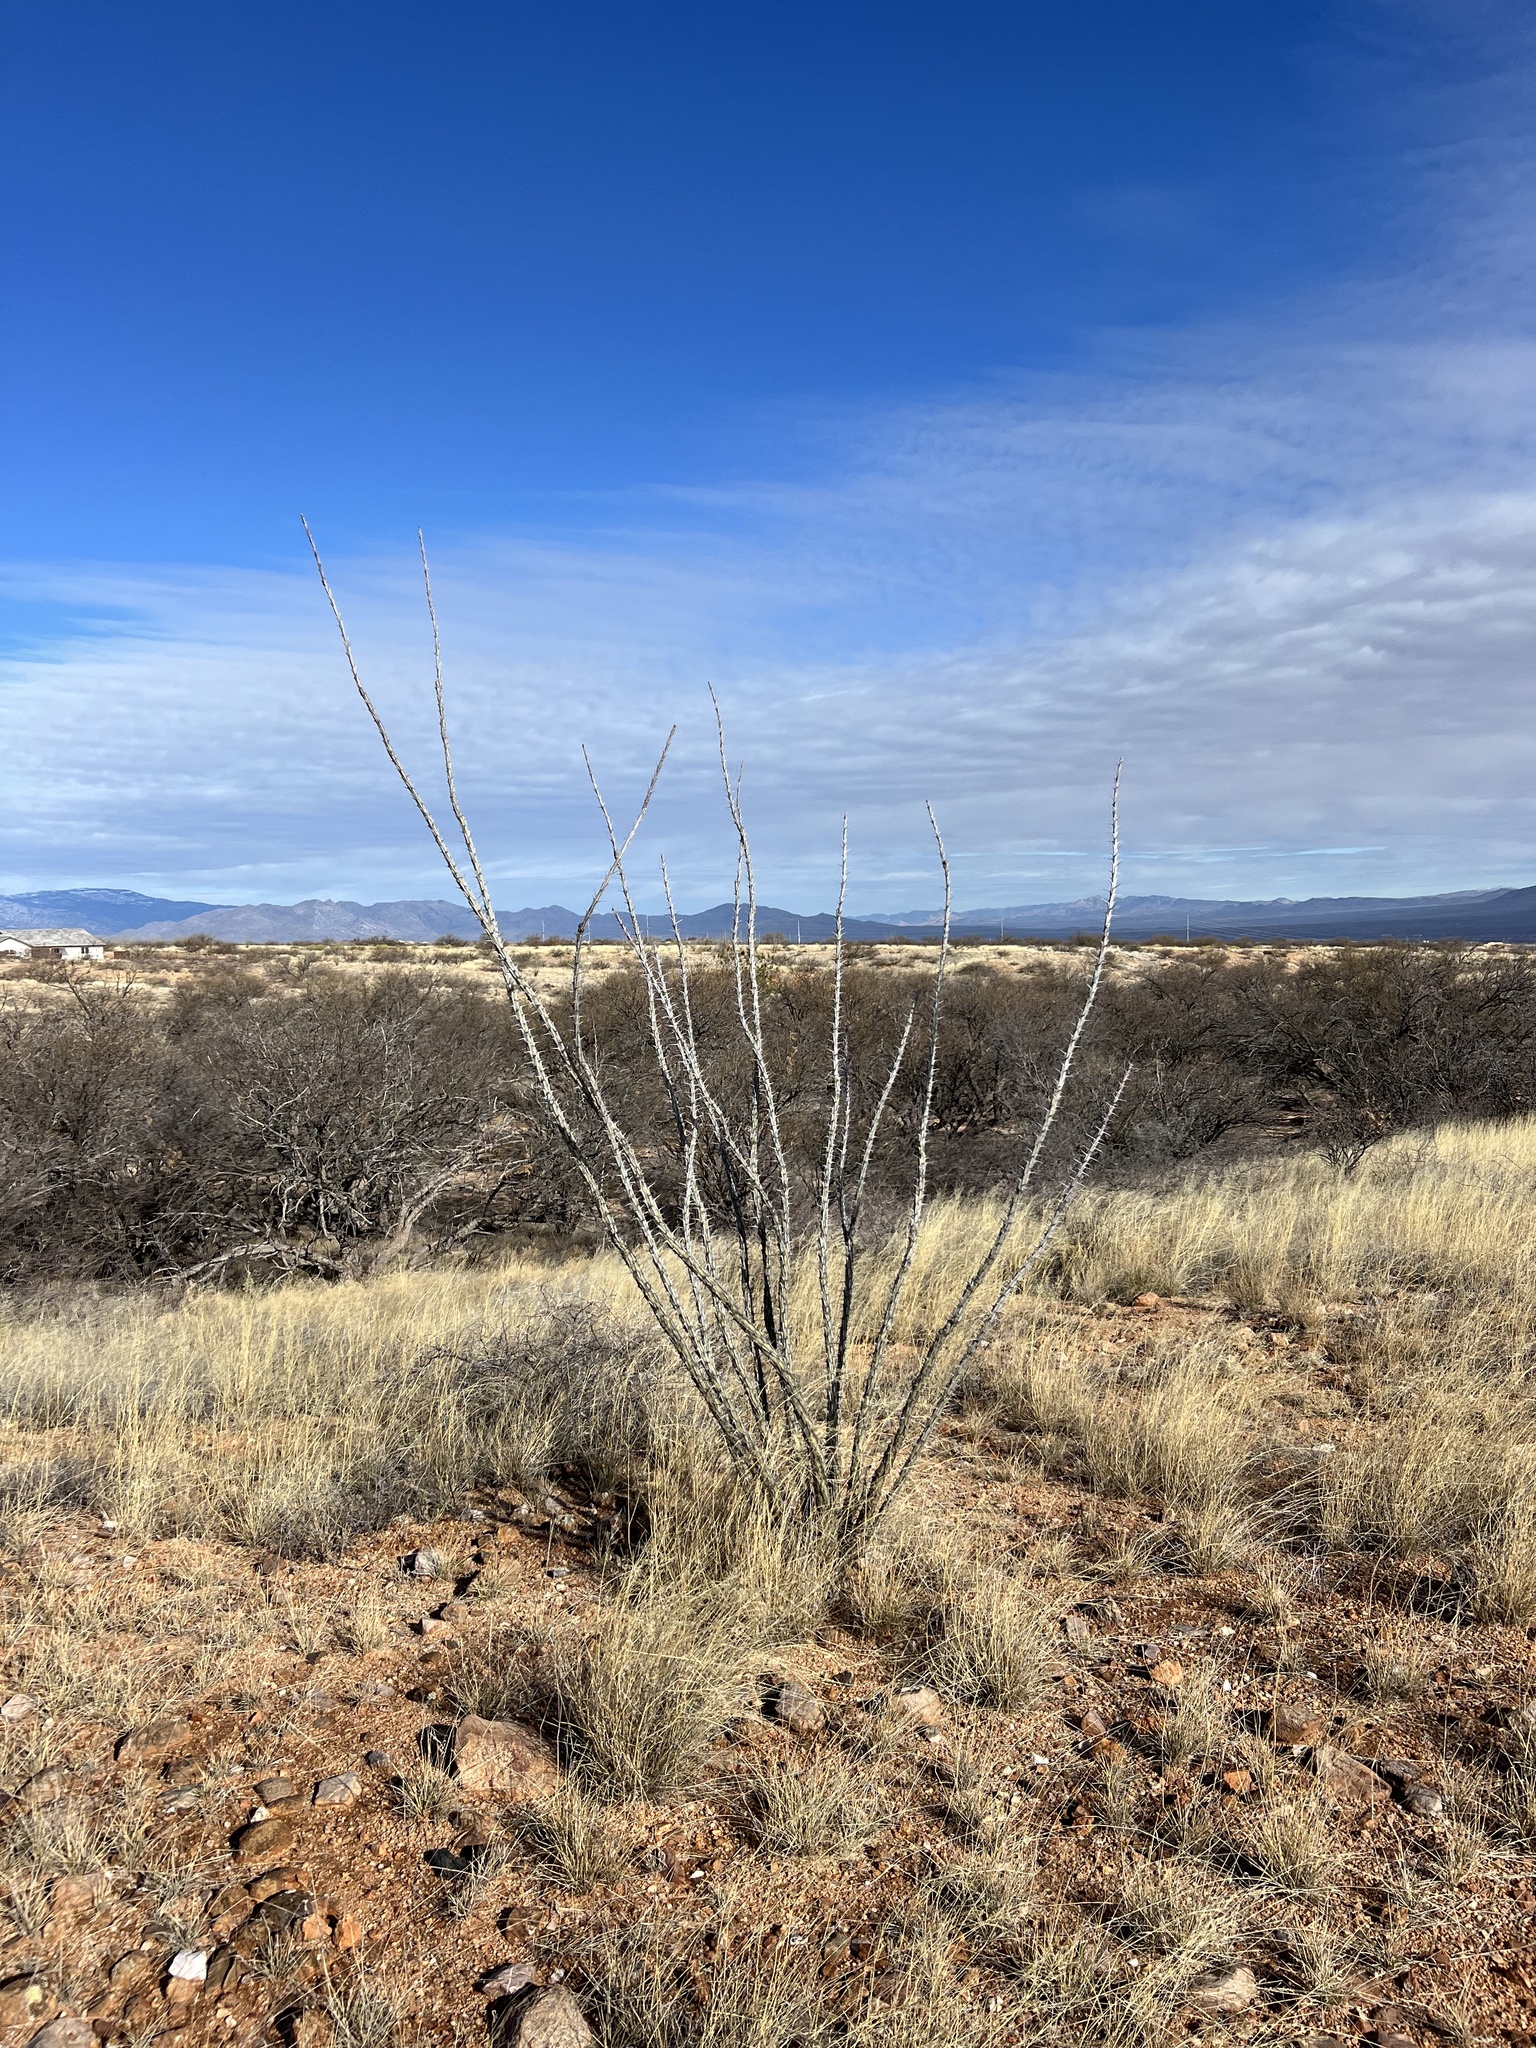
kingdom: Plantae
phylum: Tracheophyta
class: Magnoliopsida
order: Ericales
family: Fouquieriaceae
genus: Fouquieria
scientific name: Fouquieria splendens
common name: Vine-cactus
